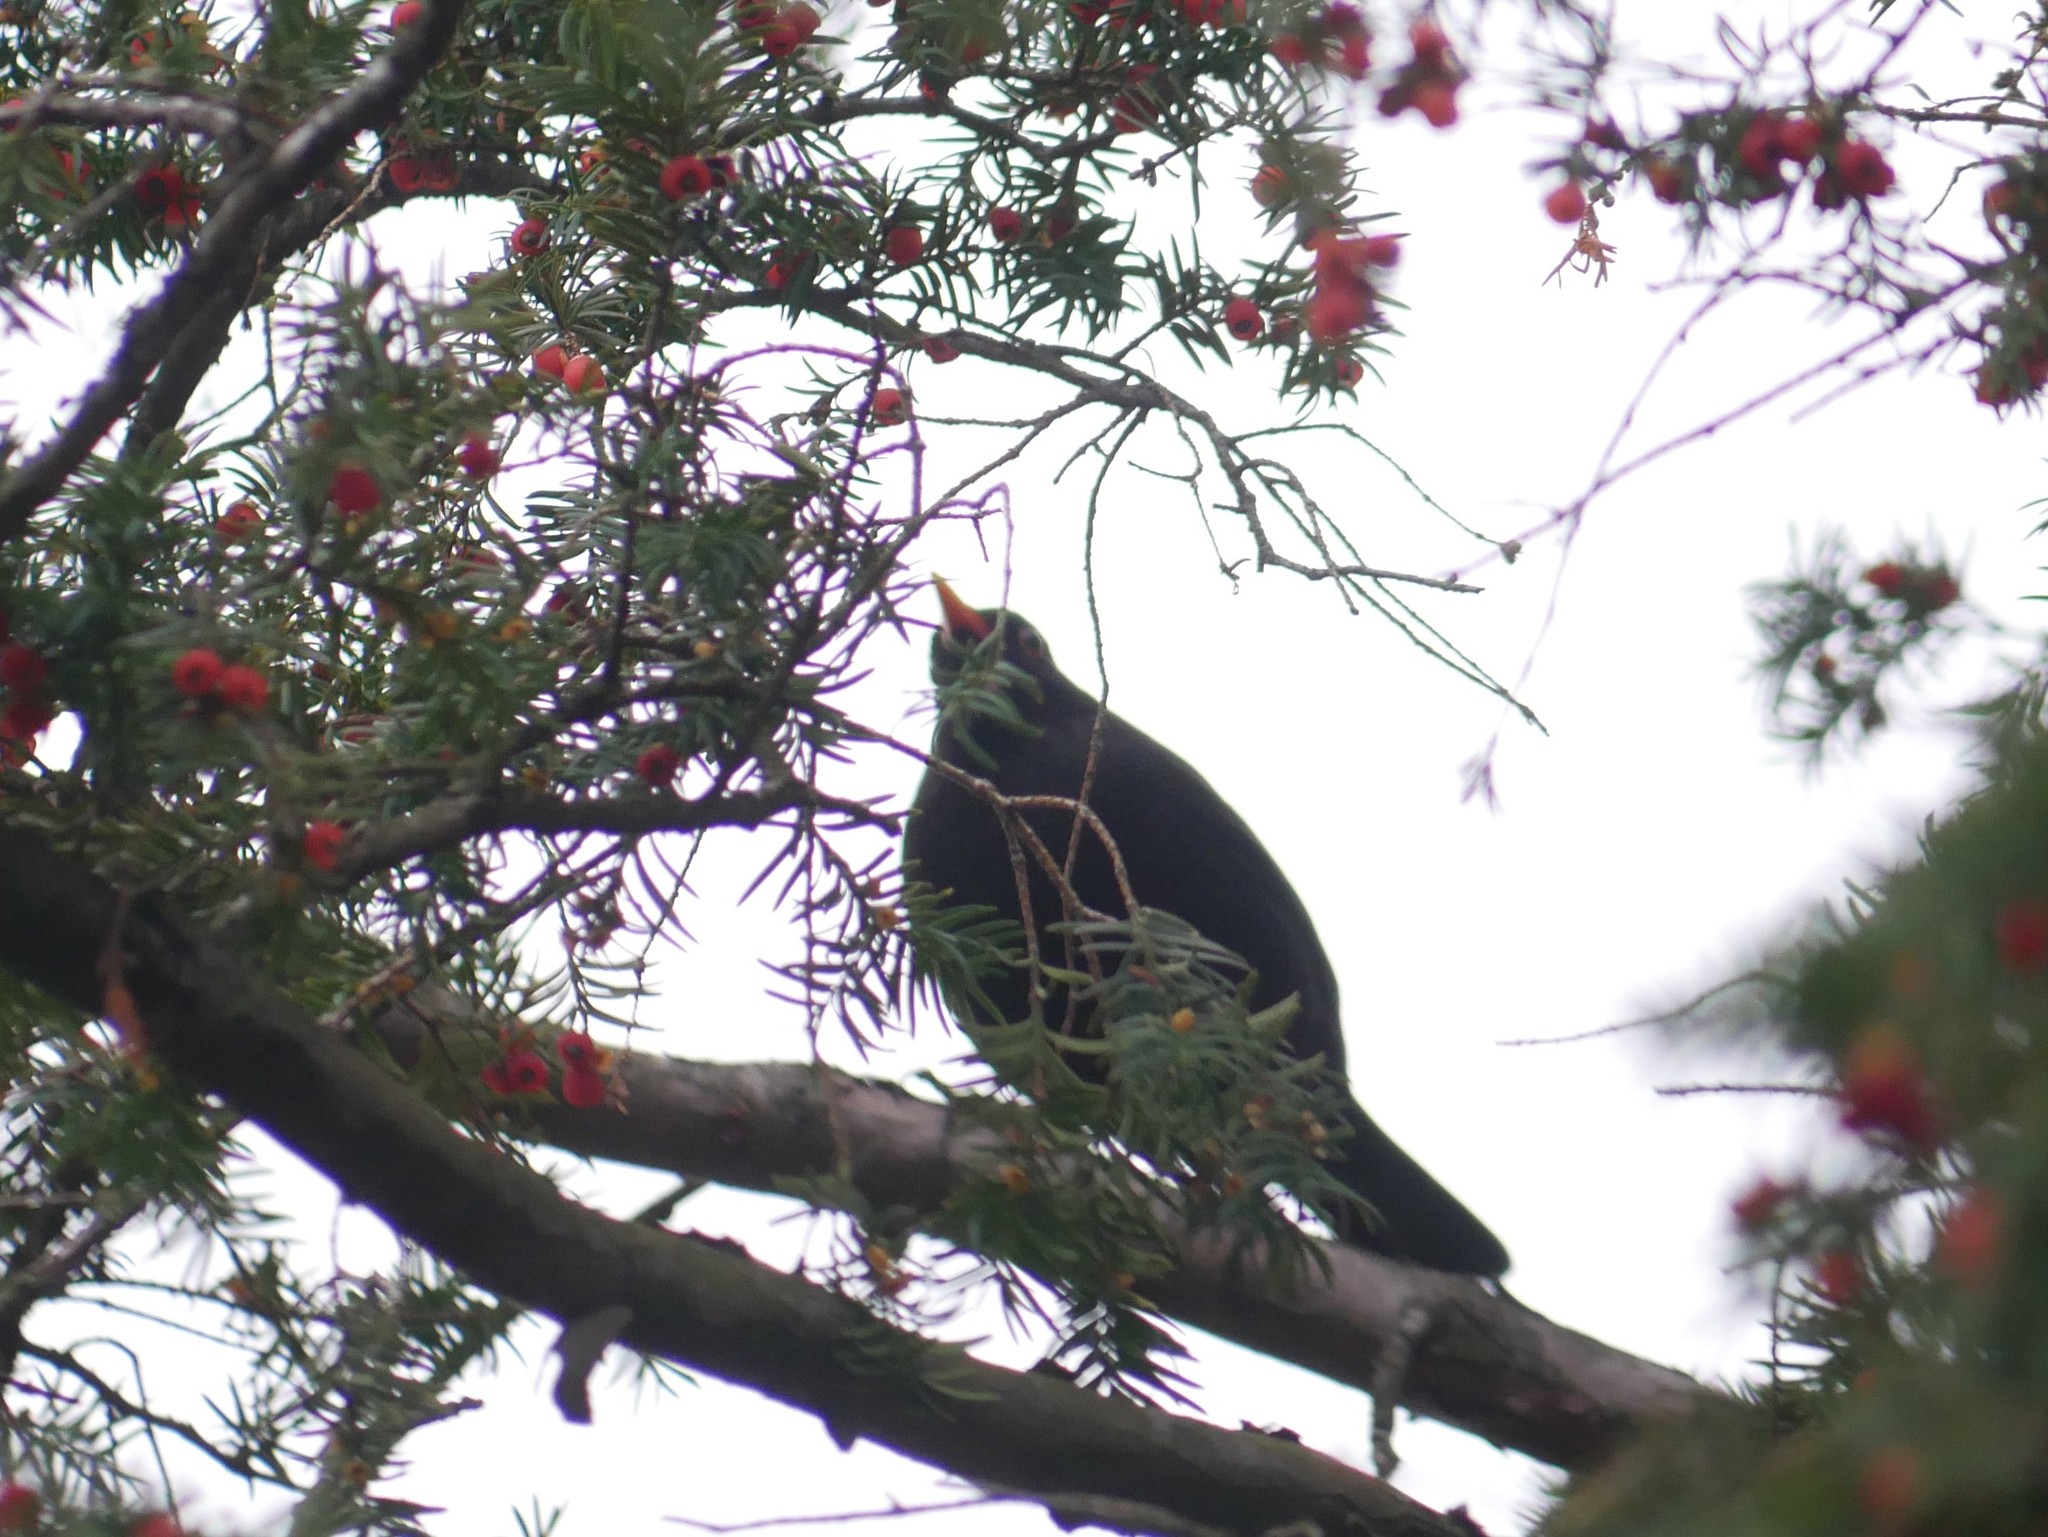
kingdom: Animalia
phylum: Chordata
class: Aves
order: Passeriformes
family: Turdidae
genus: Turdus
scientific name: Turdus merula
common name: Common blackbird
